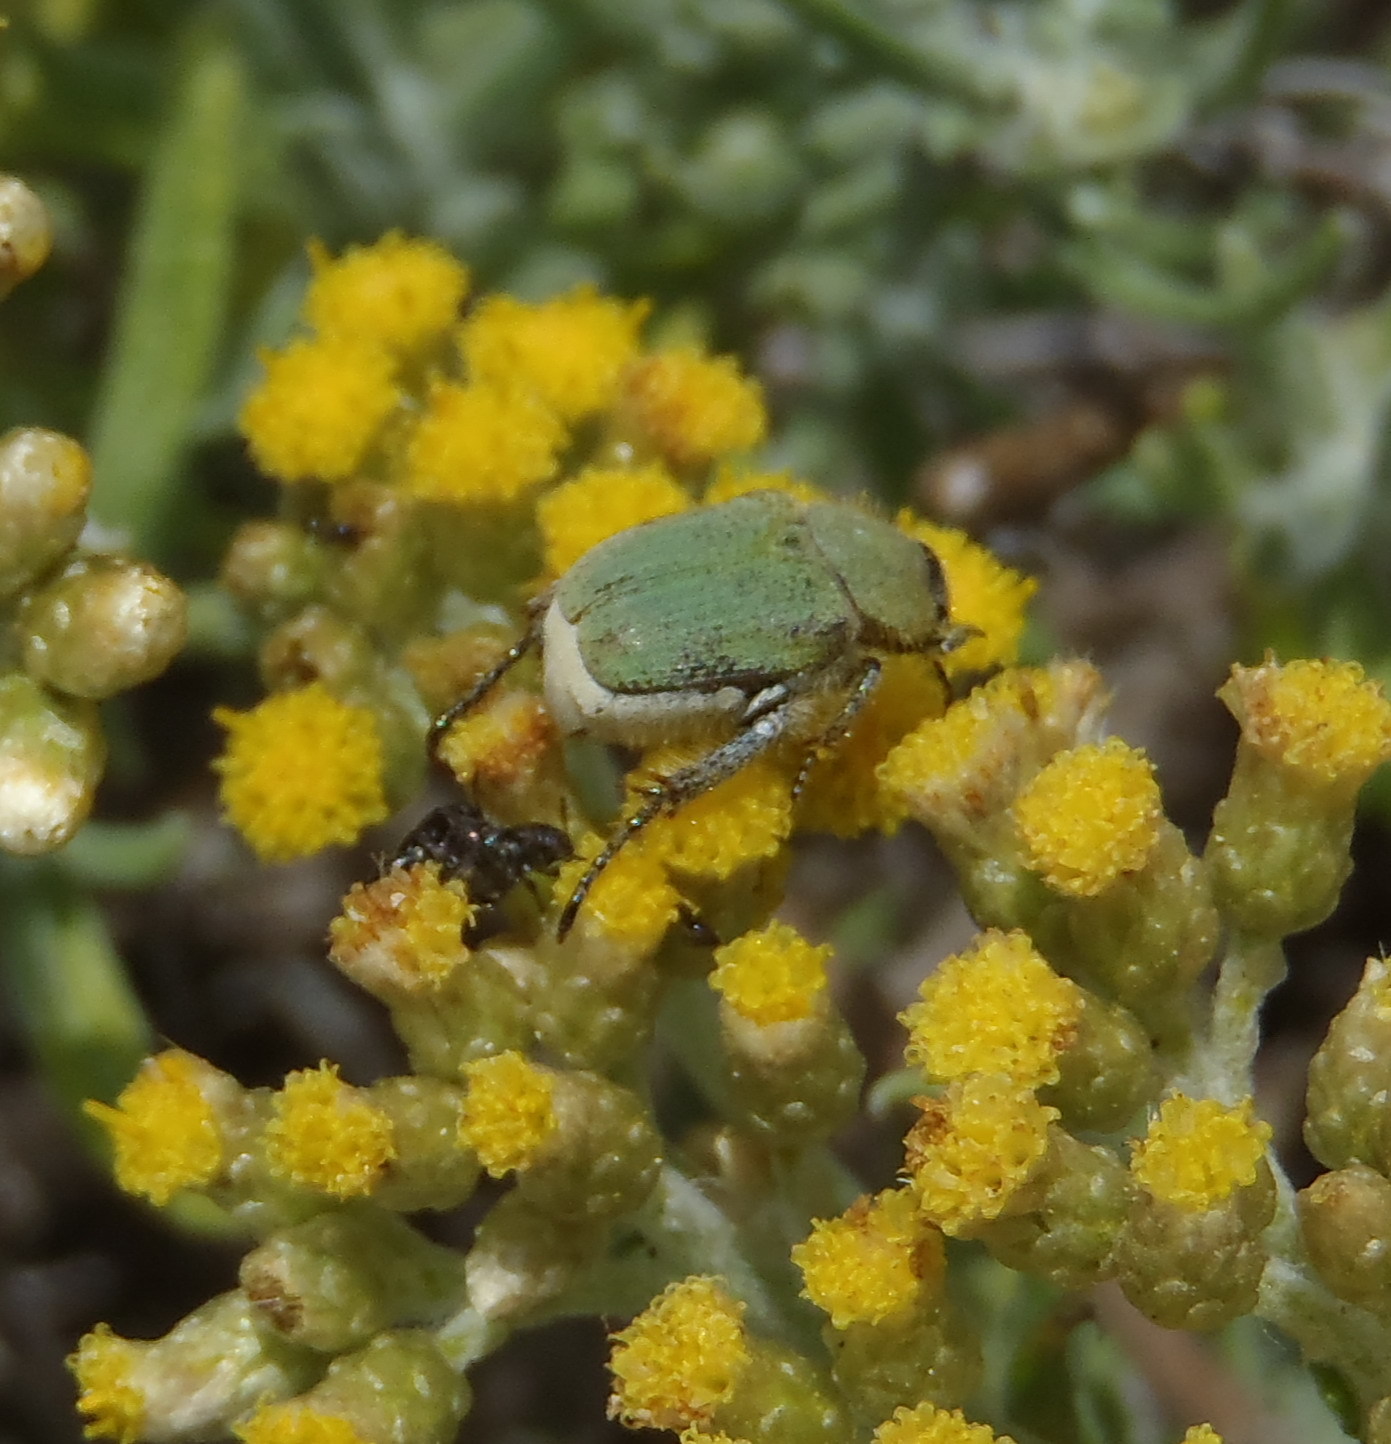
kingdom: Animalia
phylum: Arthropoda
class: Insecta
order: Coleoptera
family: Scarabaeidae
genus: Lepisia
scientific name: Lepisia braunsi
